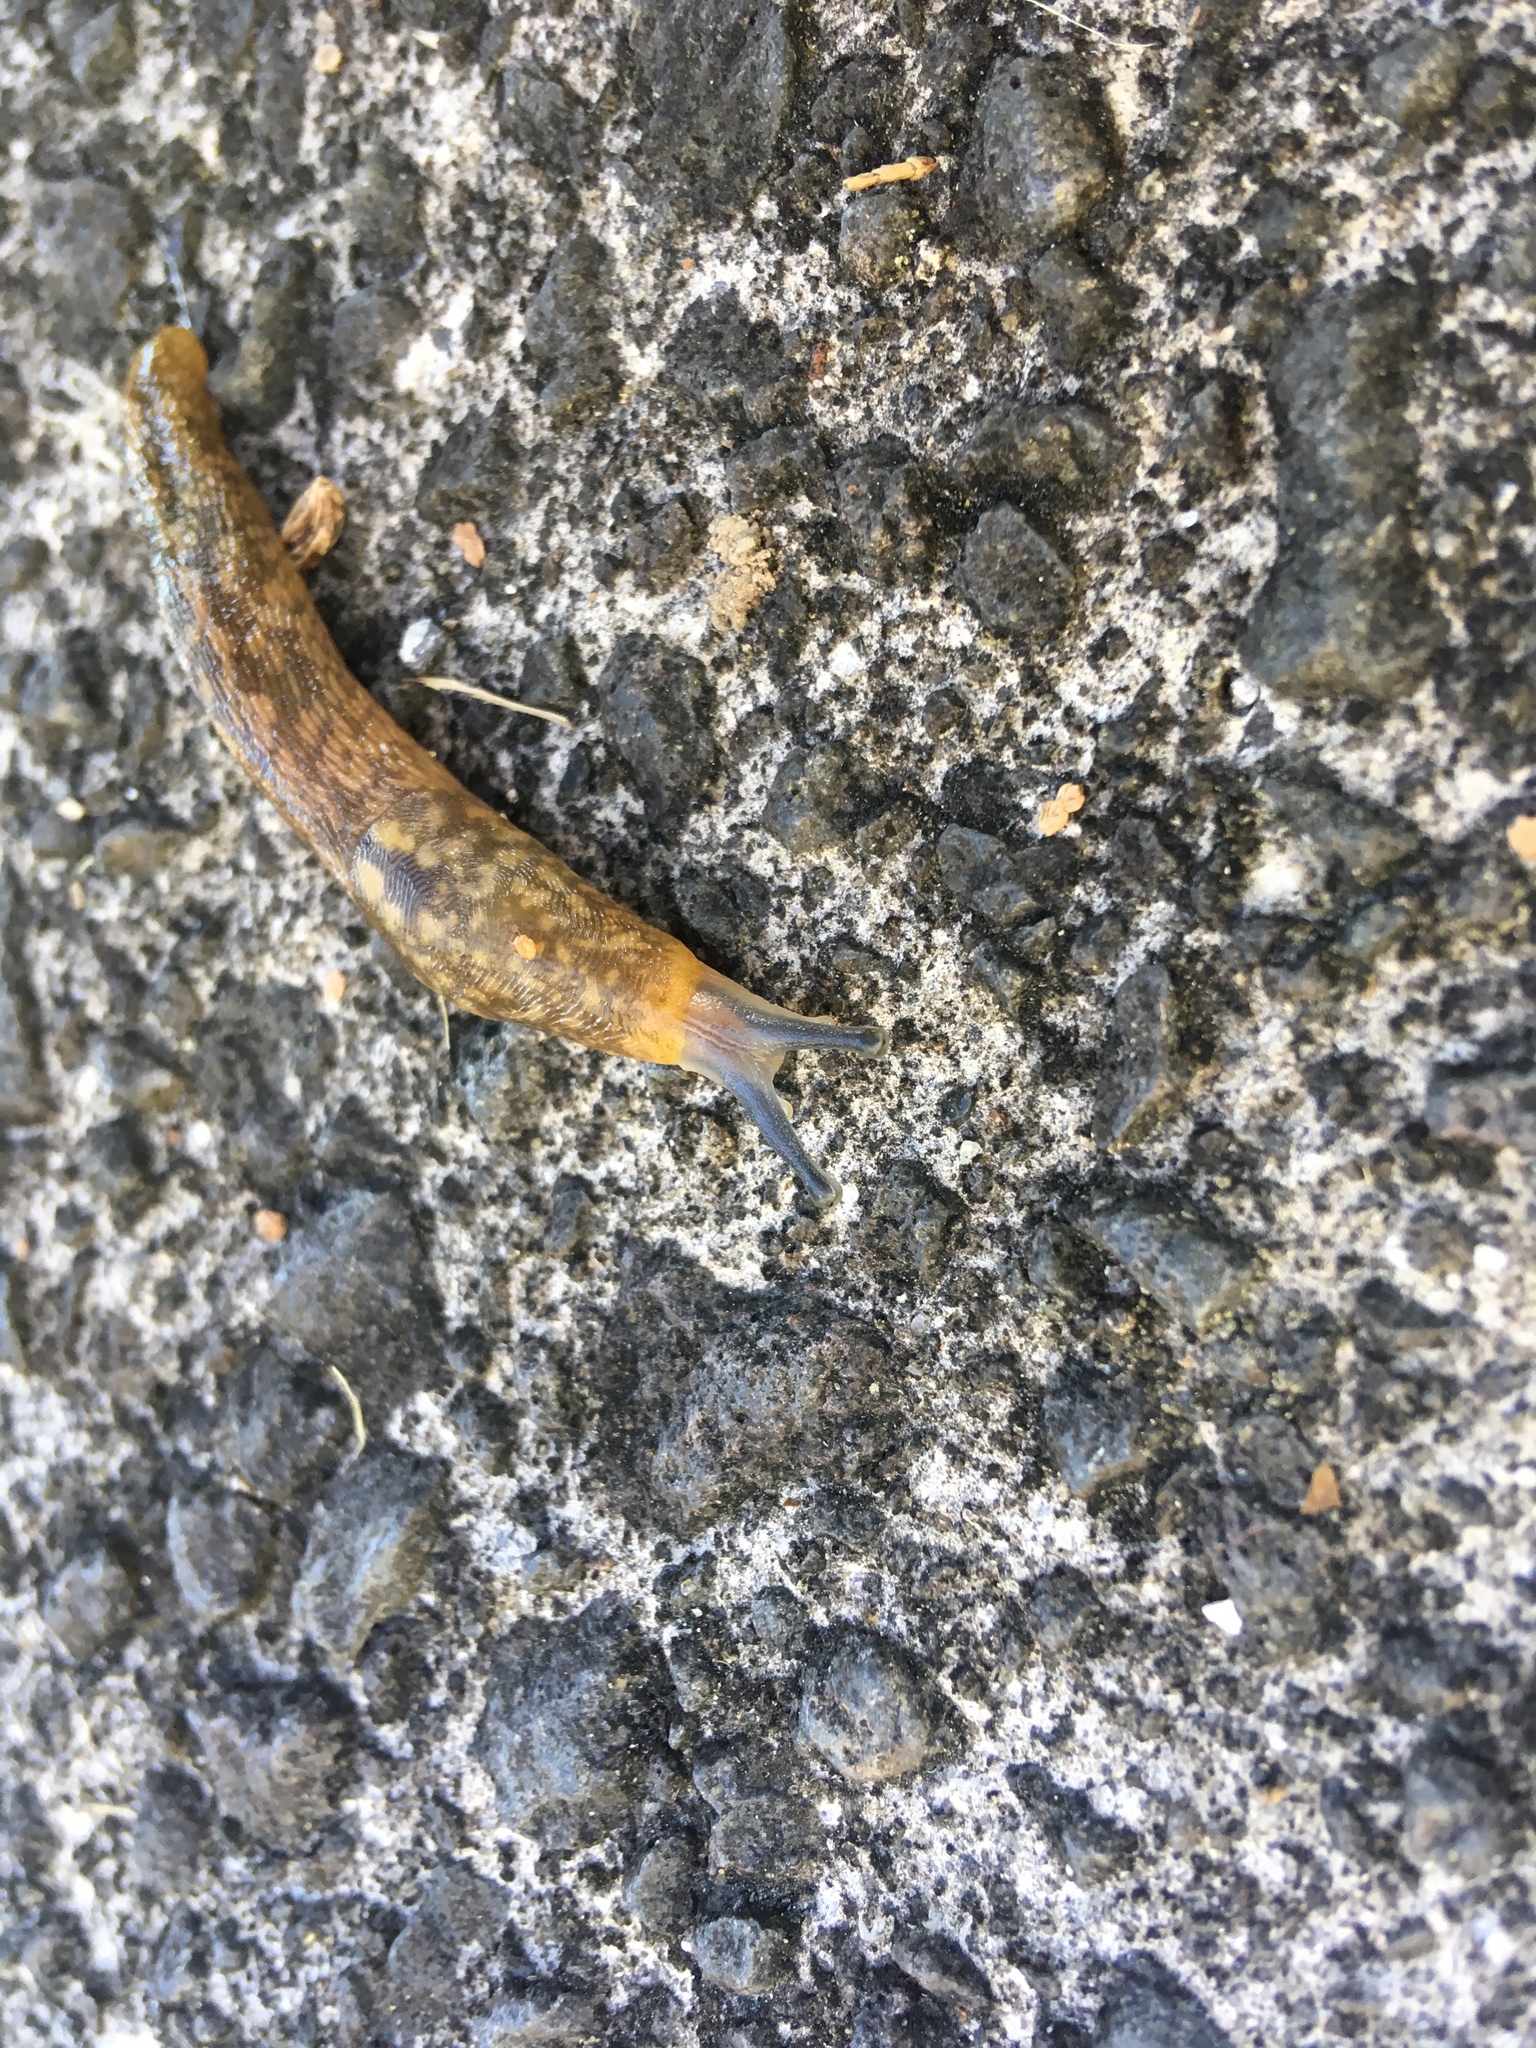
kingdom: Animalia
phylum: Mollusca
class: Gastropoda
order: Stylommatophora
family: Limacidae
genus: Limacus
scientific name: Limacus flavus
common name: Yellow gardenslug
